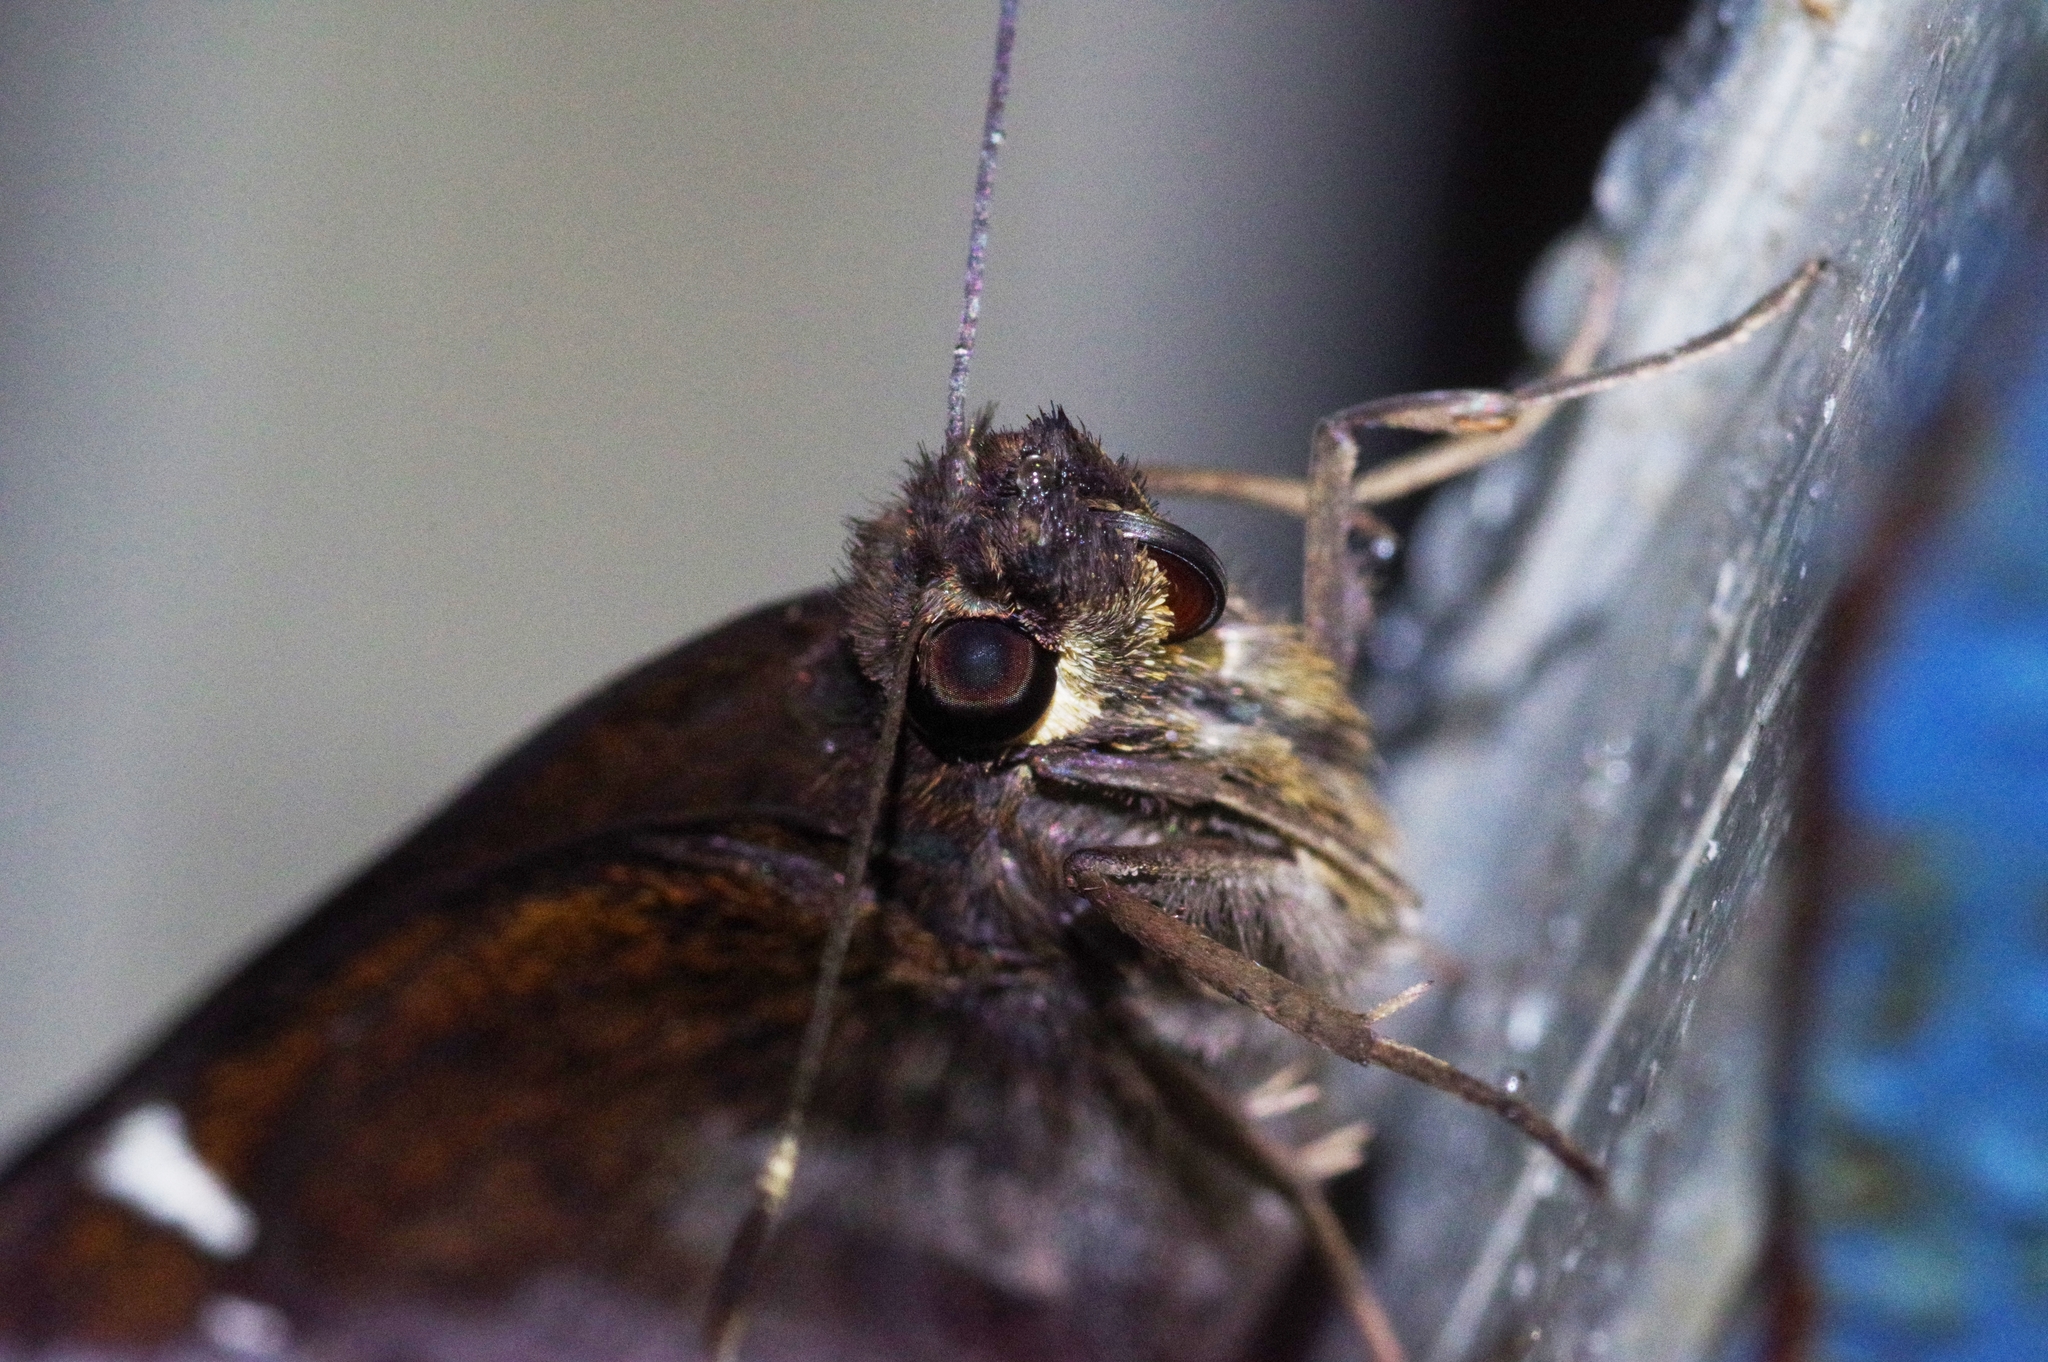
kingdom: Animalia
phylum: Arthropoda
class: Insecta
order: Lepidoptera
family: Hesperiidae
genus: Notocrypta
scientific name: Notocrypta curvifascia
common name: Restricted demon
